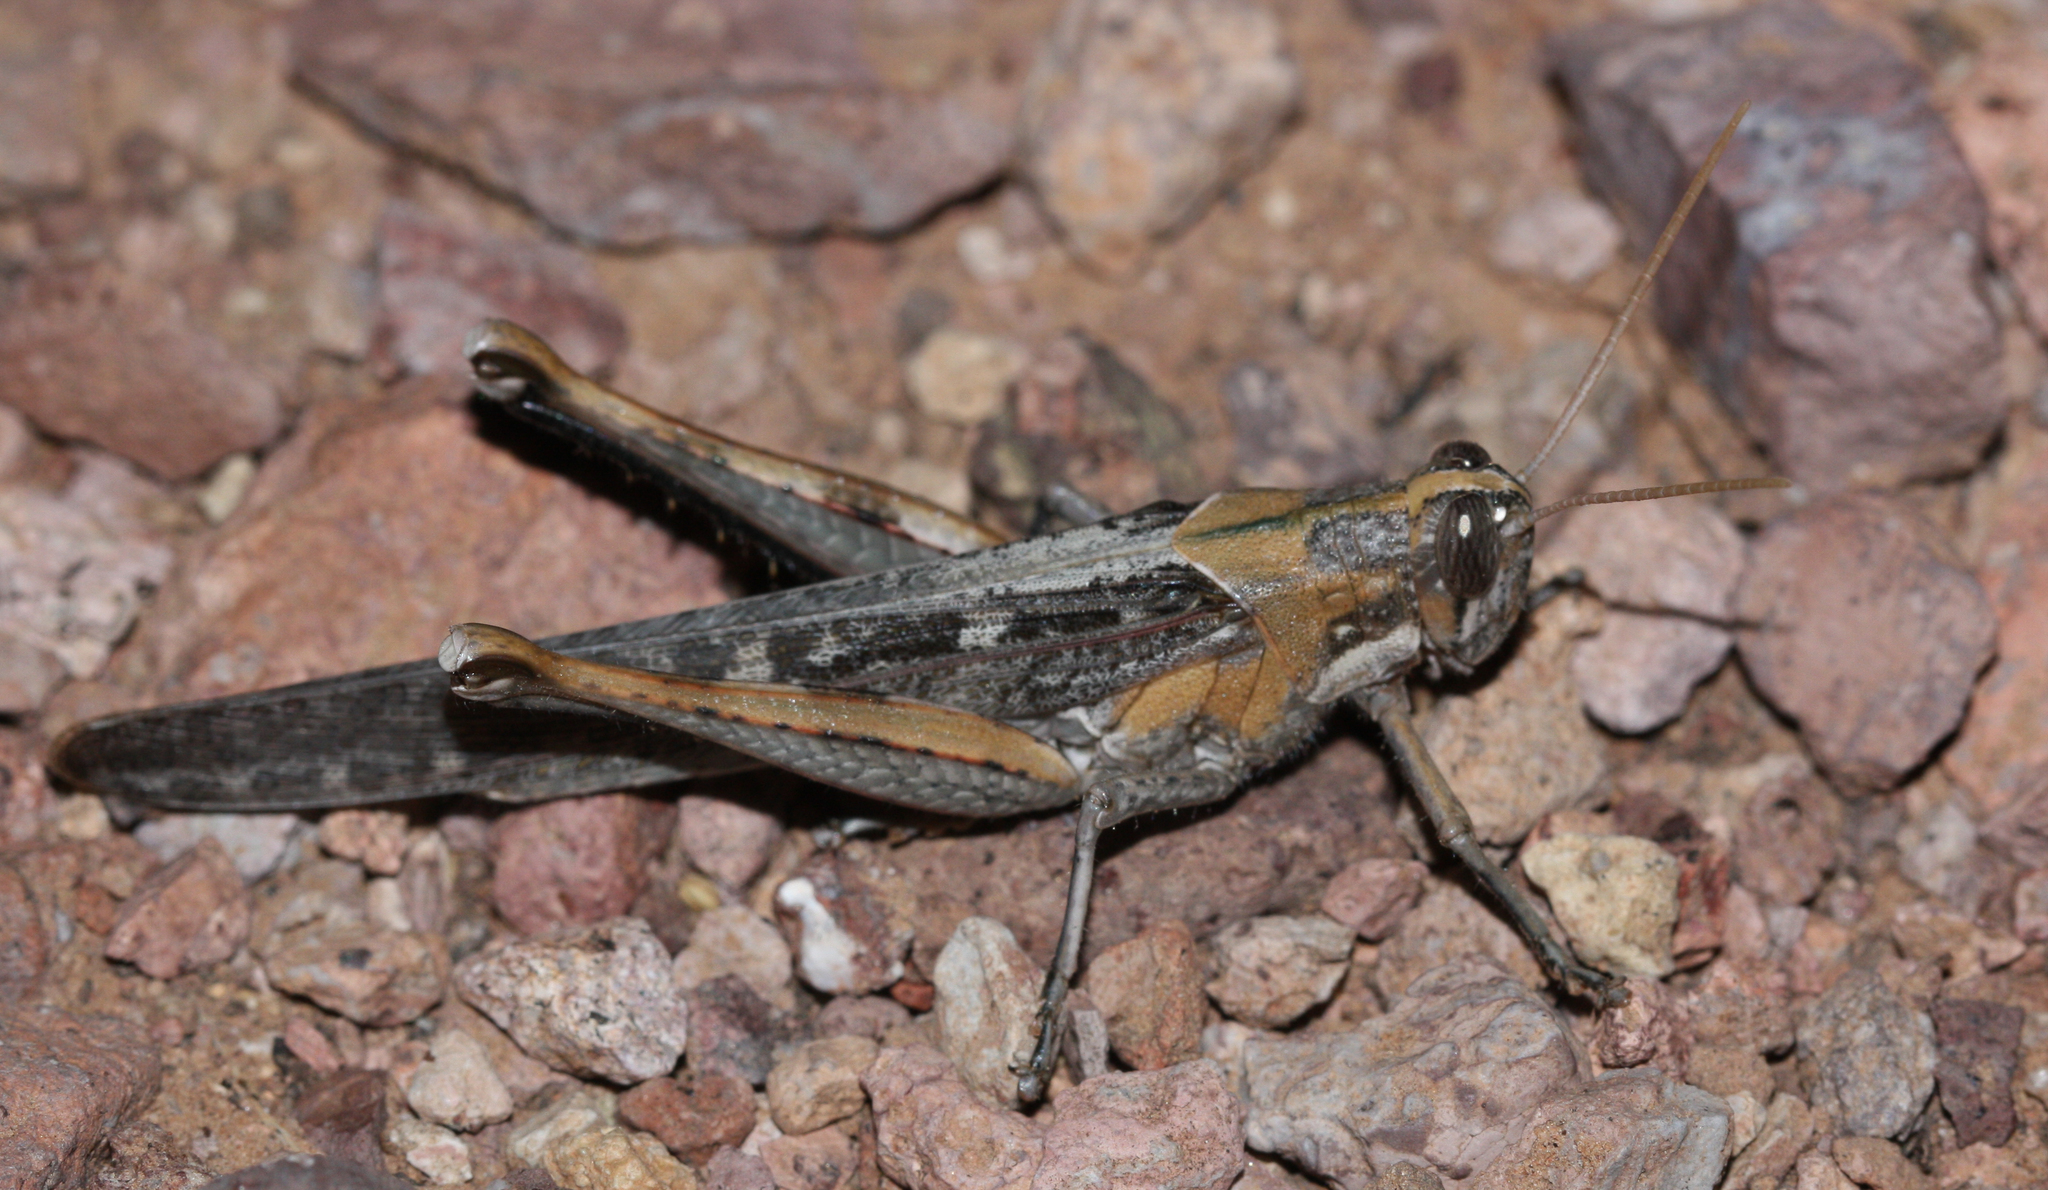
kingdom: Animalia
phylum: Arthropoda
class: Insecta
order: Orthoptera
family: Acrididae
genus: Schistocerca
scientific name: Schistocerca nitens
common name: Vagrant grasshopper
